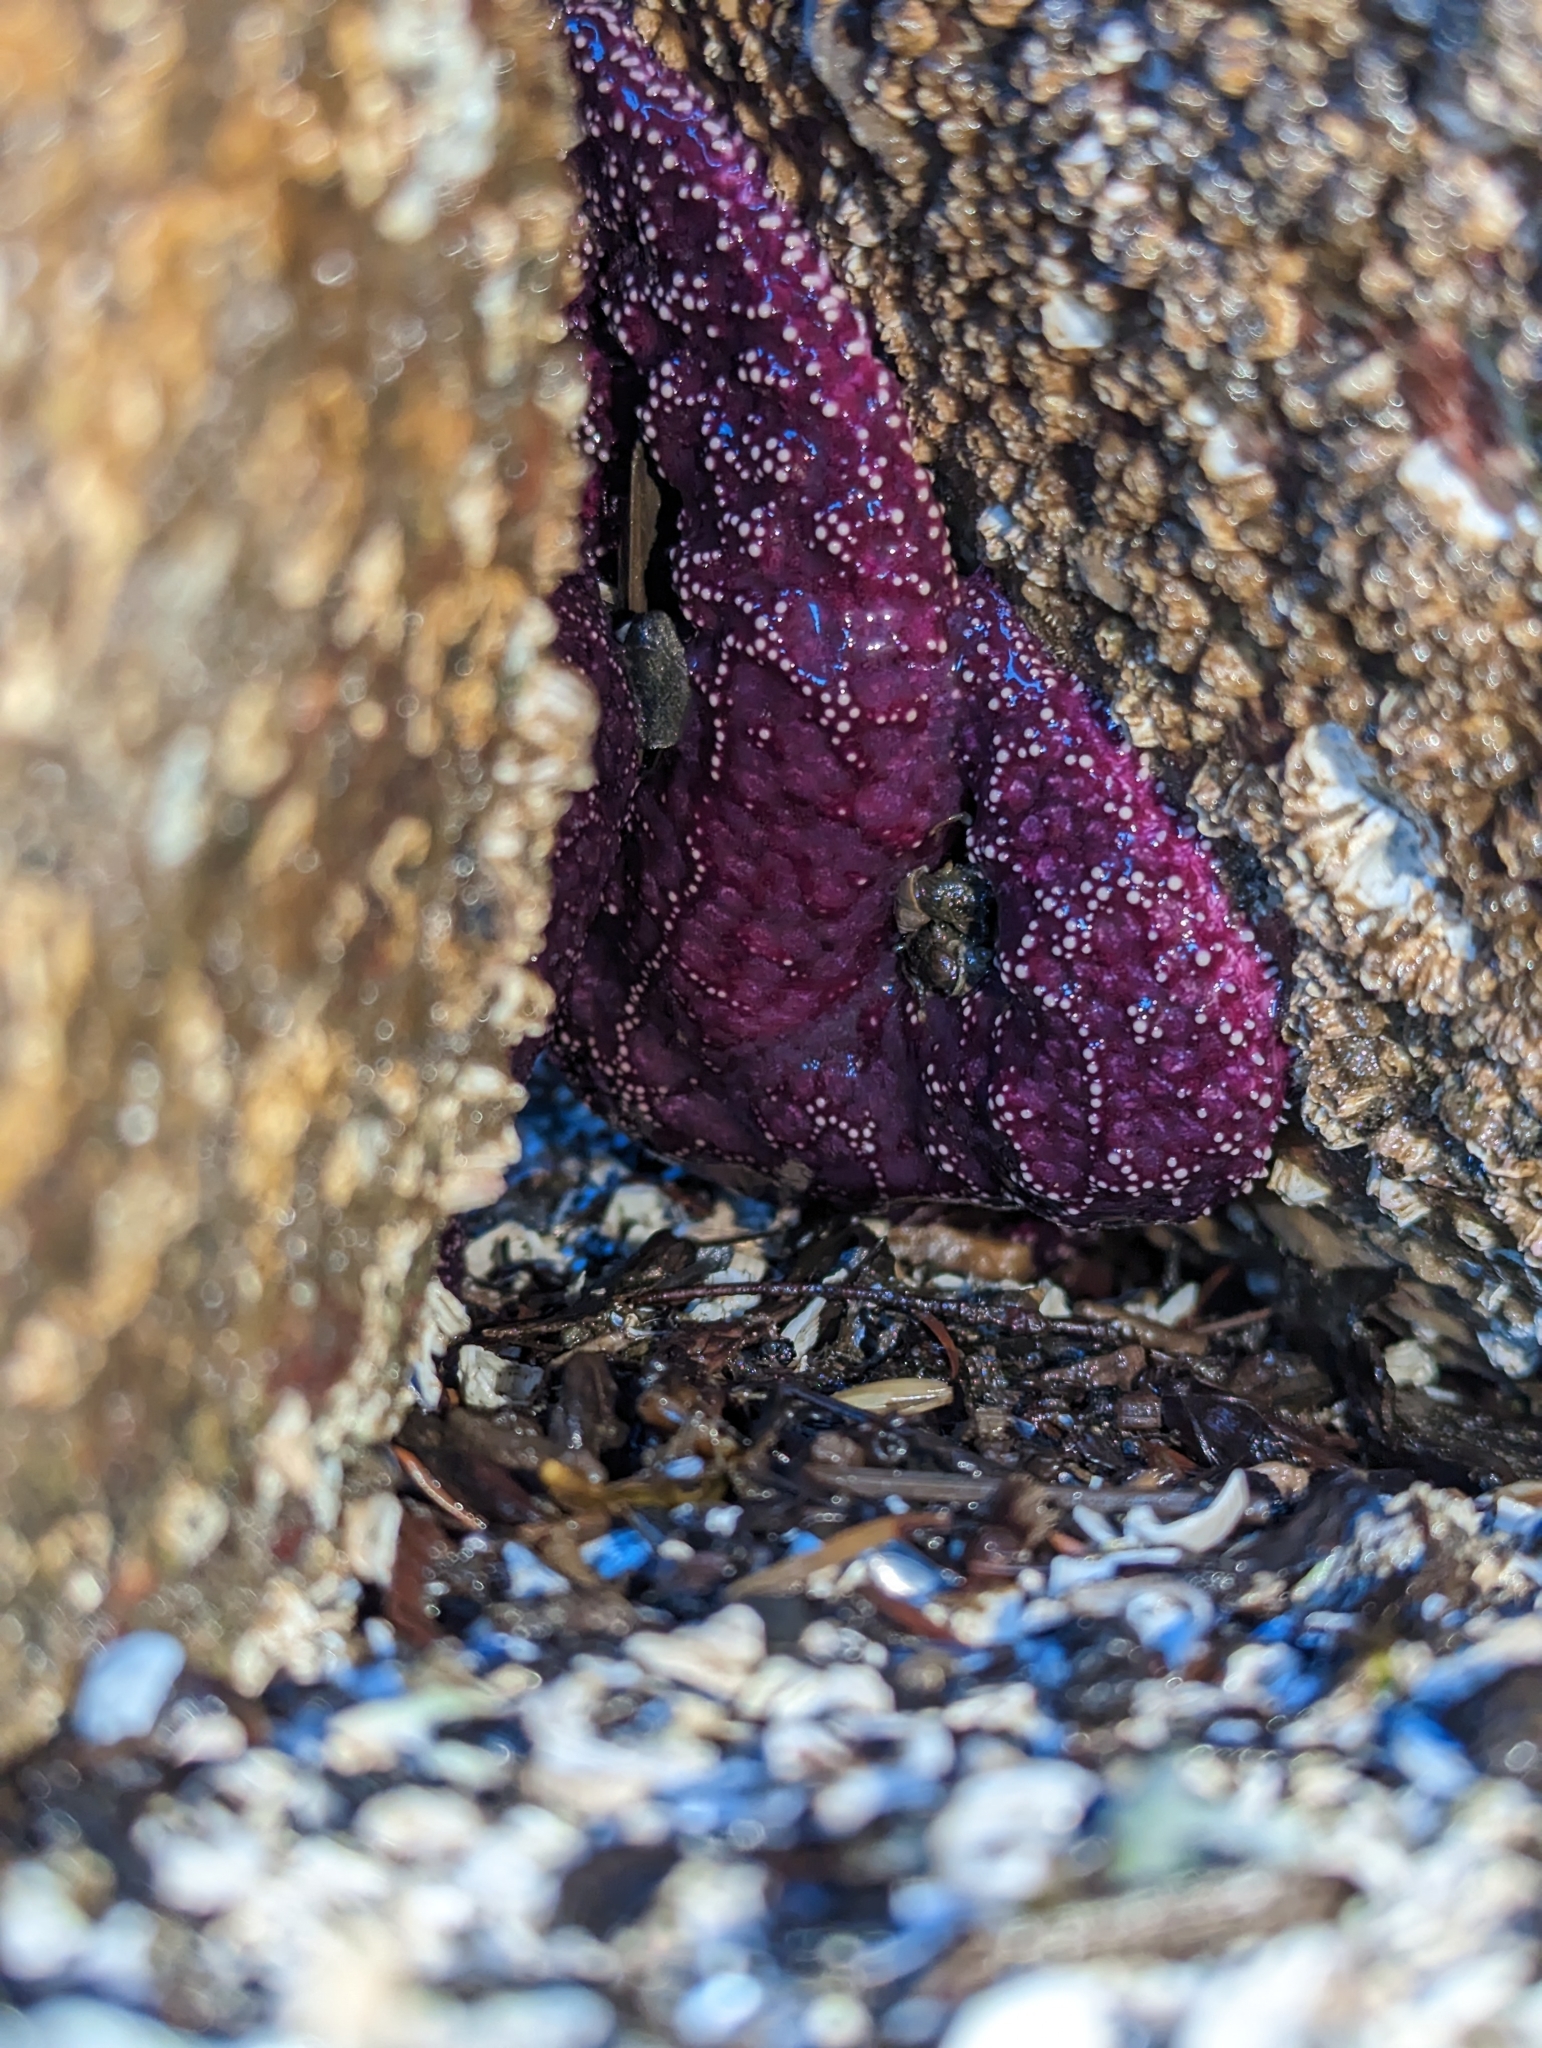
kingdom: Animalia
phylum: Echinodermata
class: Asteroidea
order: Forcipulatida
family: Asteriidae
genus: Pisaster
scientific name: Pisaster ochraceus
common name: Ochre stars
